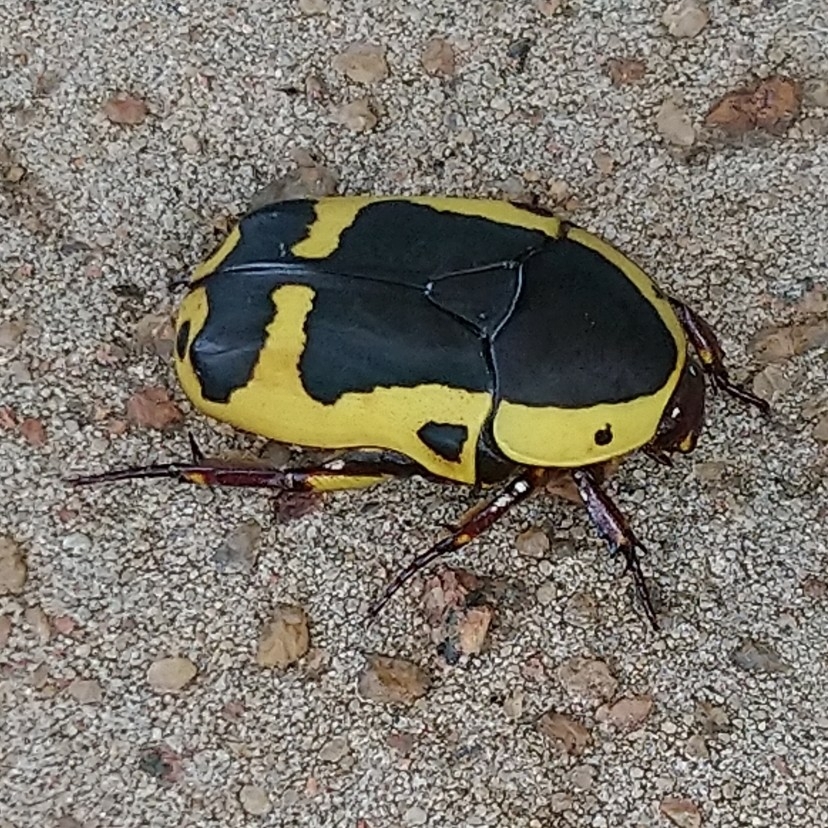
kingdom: Animalia
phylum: Arthropoda
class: Insecta
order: Coleoptera
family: Scarabaeidae
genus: Pachnoda
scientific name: Pachnoda sinuata
